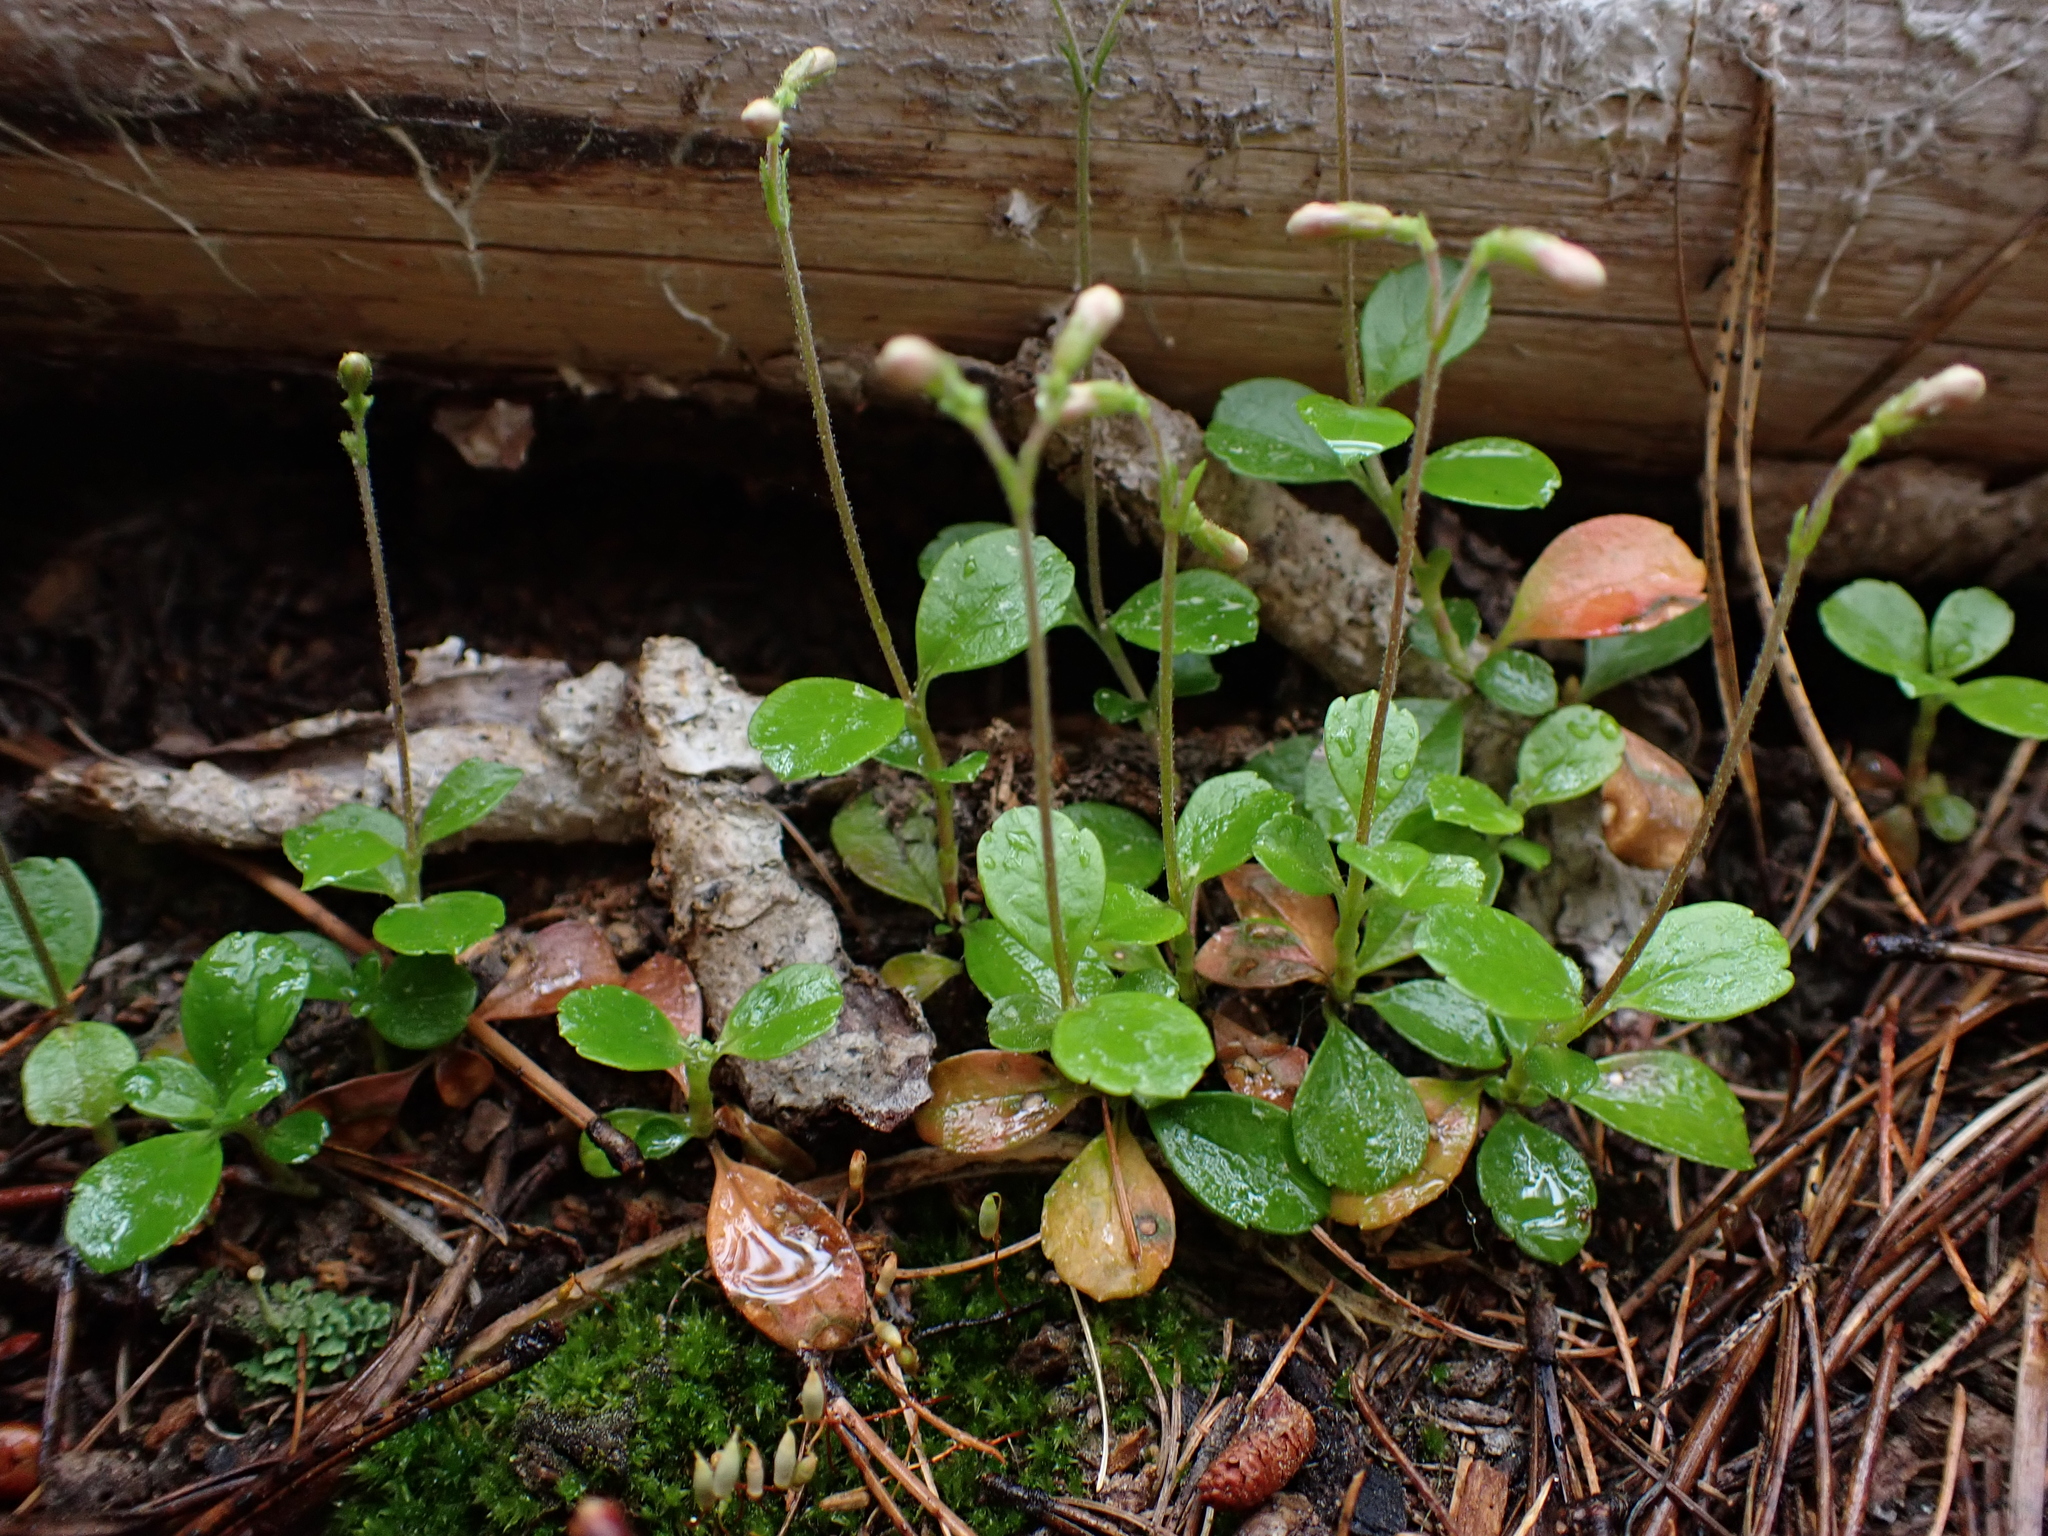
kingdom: Plantae
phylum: Tracheophyta
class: Magnoliopsida
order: Dipsacales
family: Caprifoliaceae
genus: Linnaea
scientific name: Linnaea borealis
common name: Twinflower
